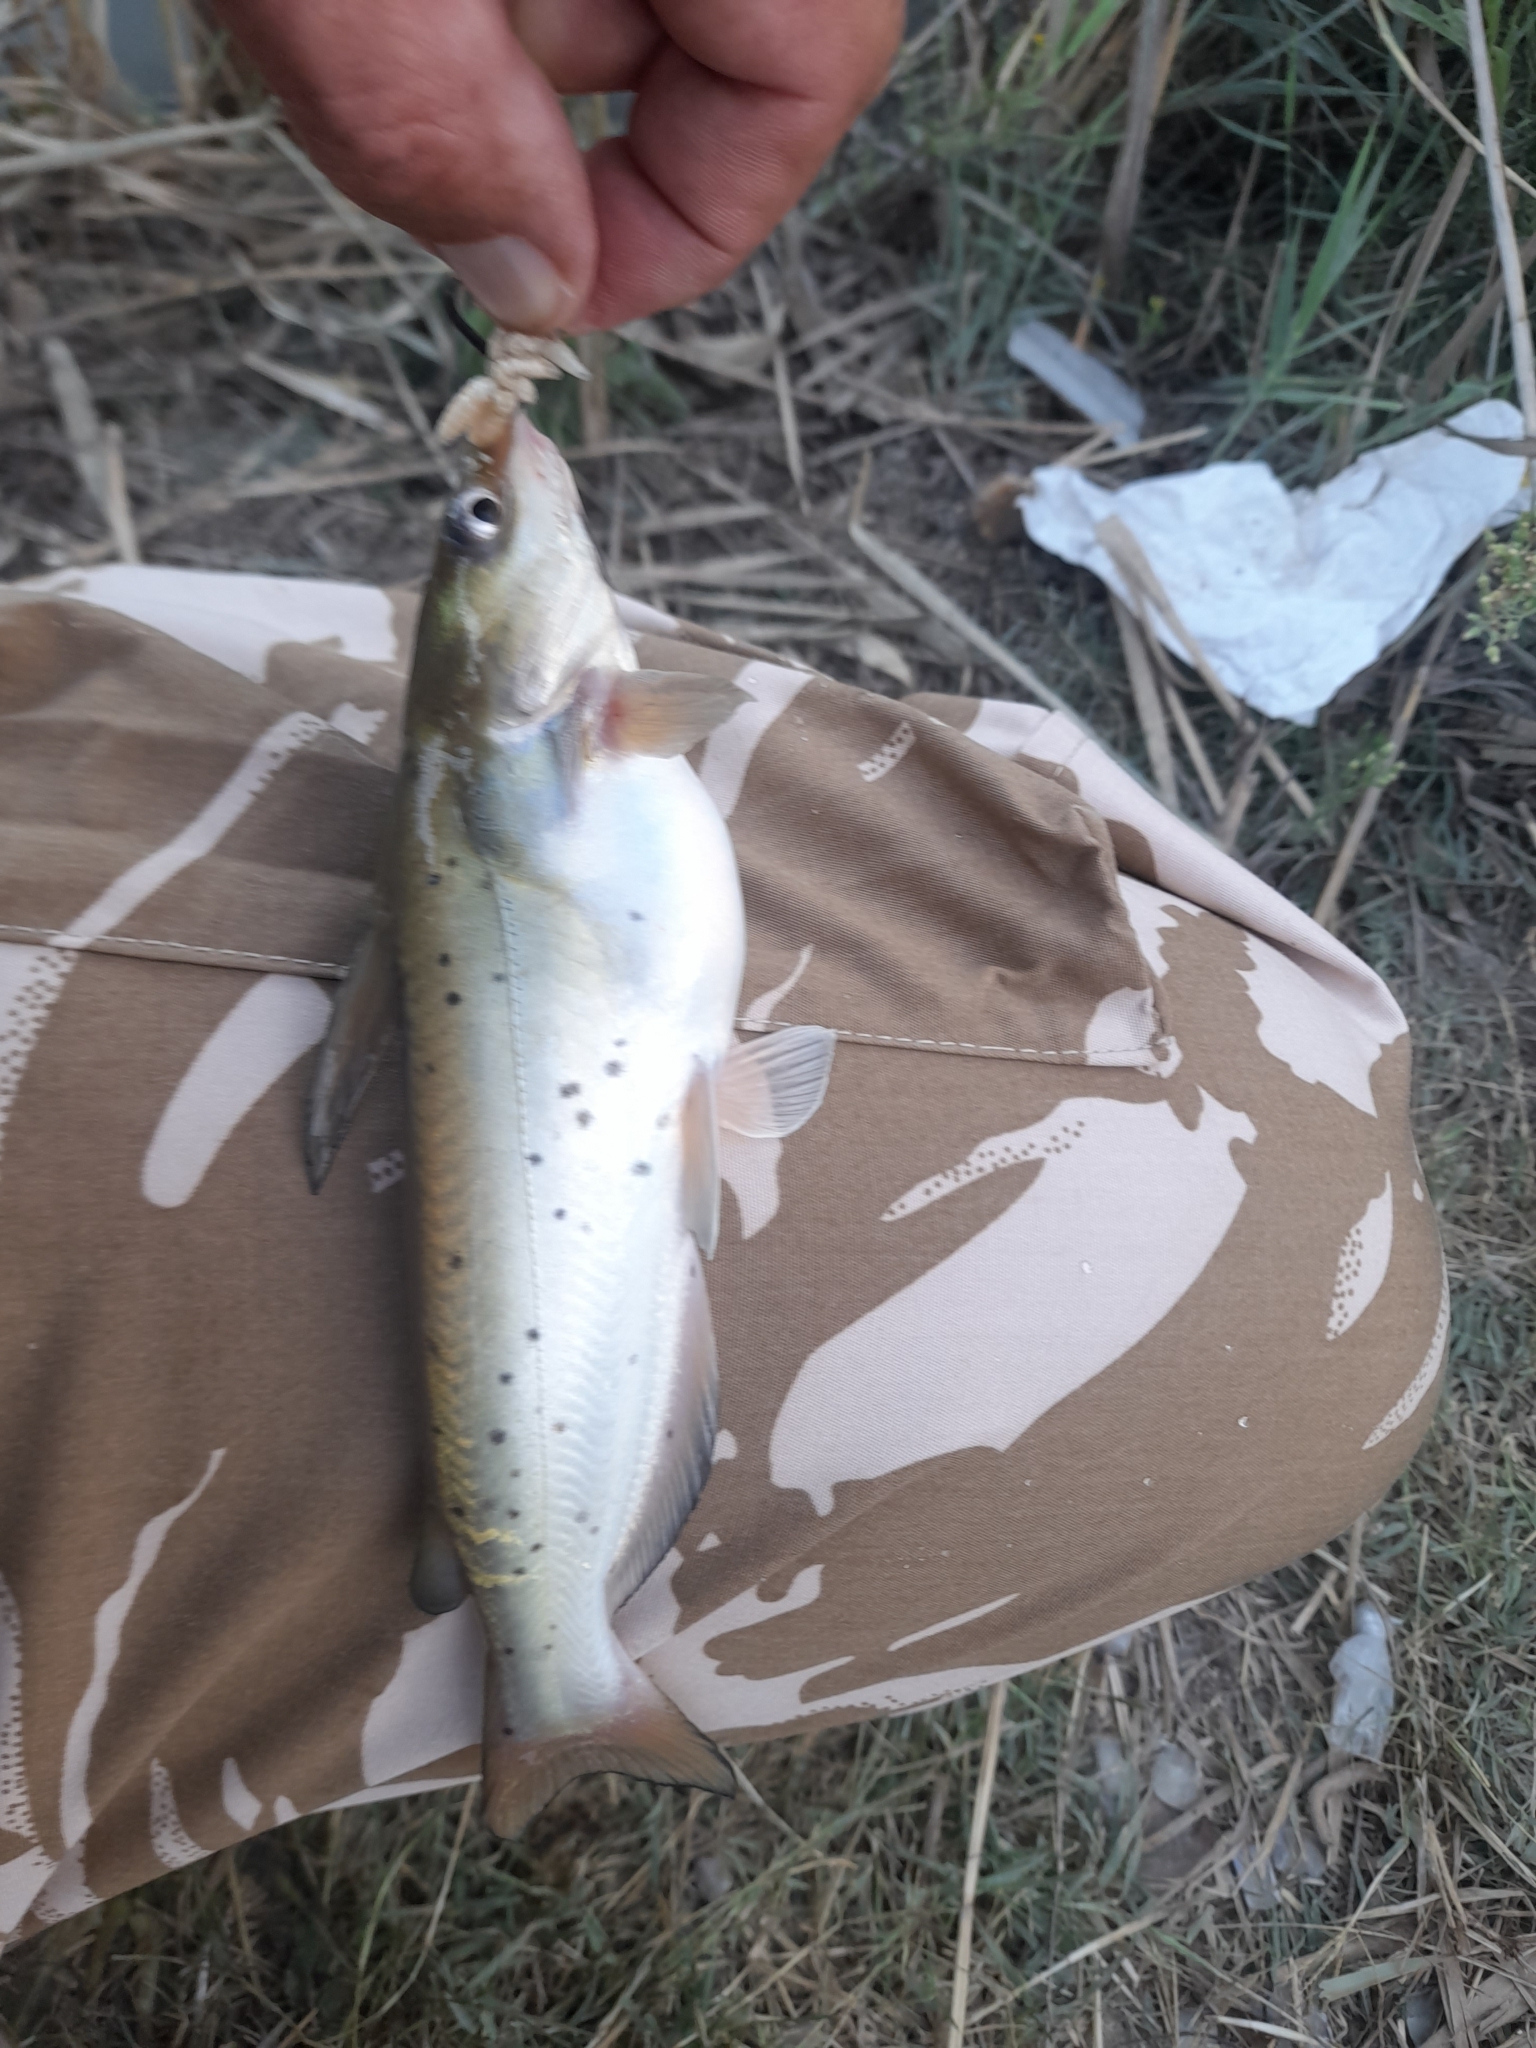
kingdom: Animalia
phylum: Chordata
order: Siluriformes
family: Ictaluridae
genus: Ictalurus
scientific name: Ictalurus punctatus
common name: Channel catfish
